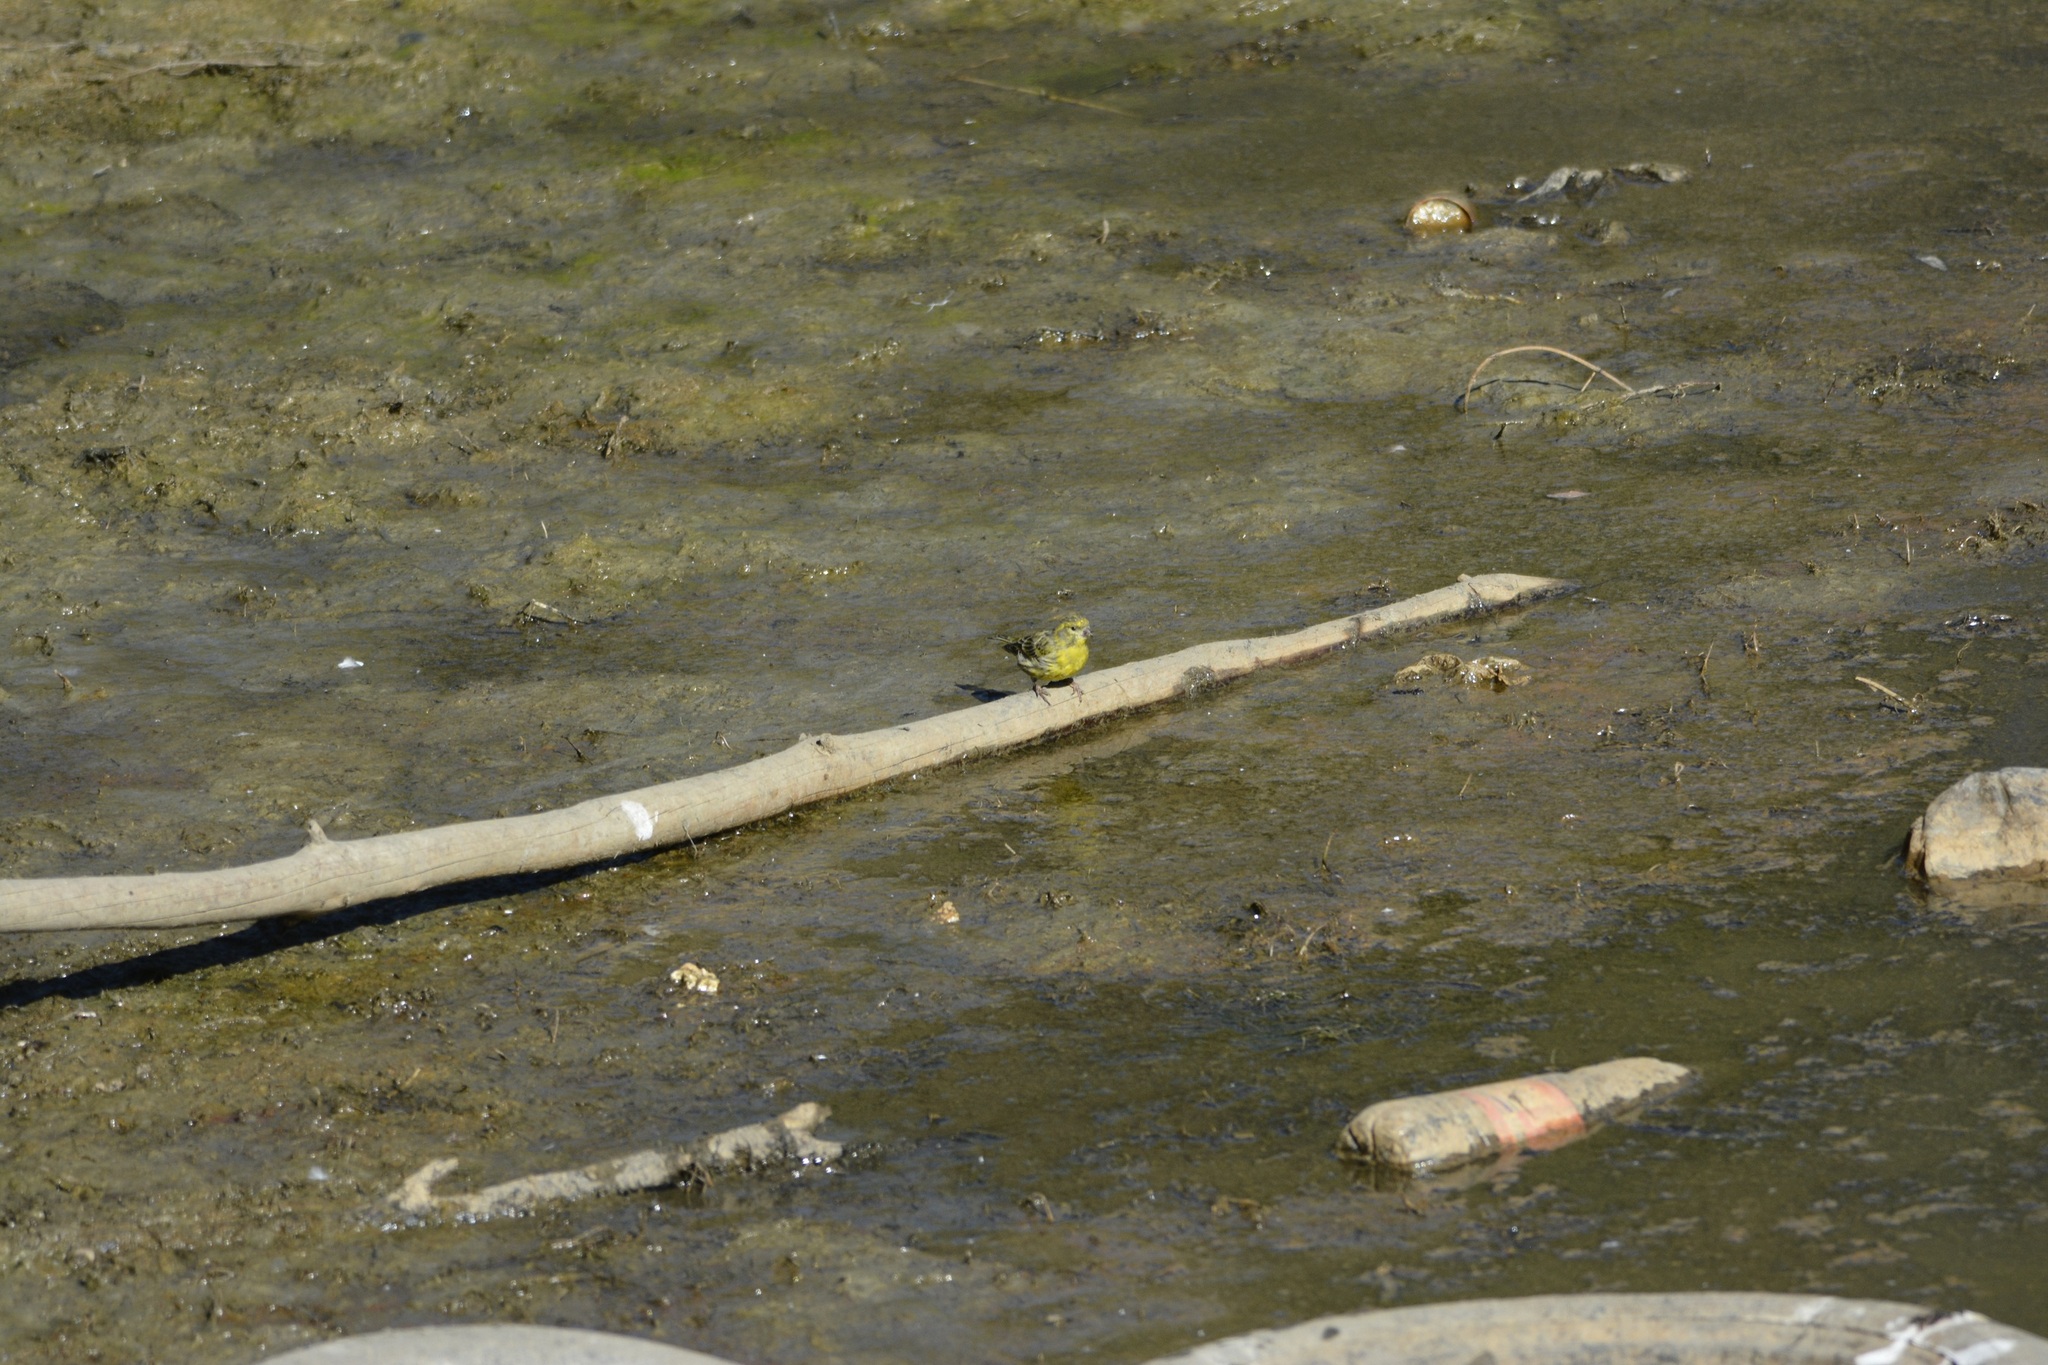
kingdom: Animalia
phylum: Chordata
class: Aves
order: Passeriformes
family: Fringillidae
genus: Serinus
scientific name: Serinus serinus
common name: European serin
